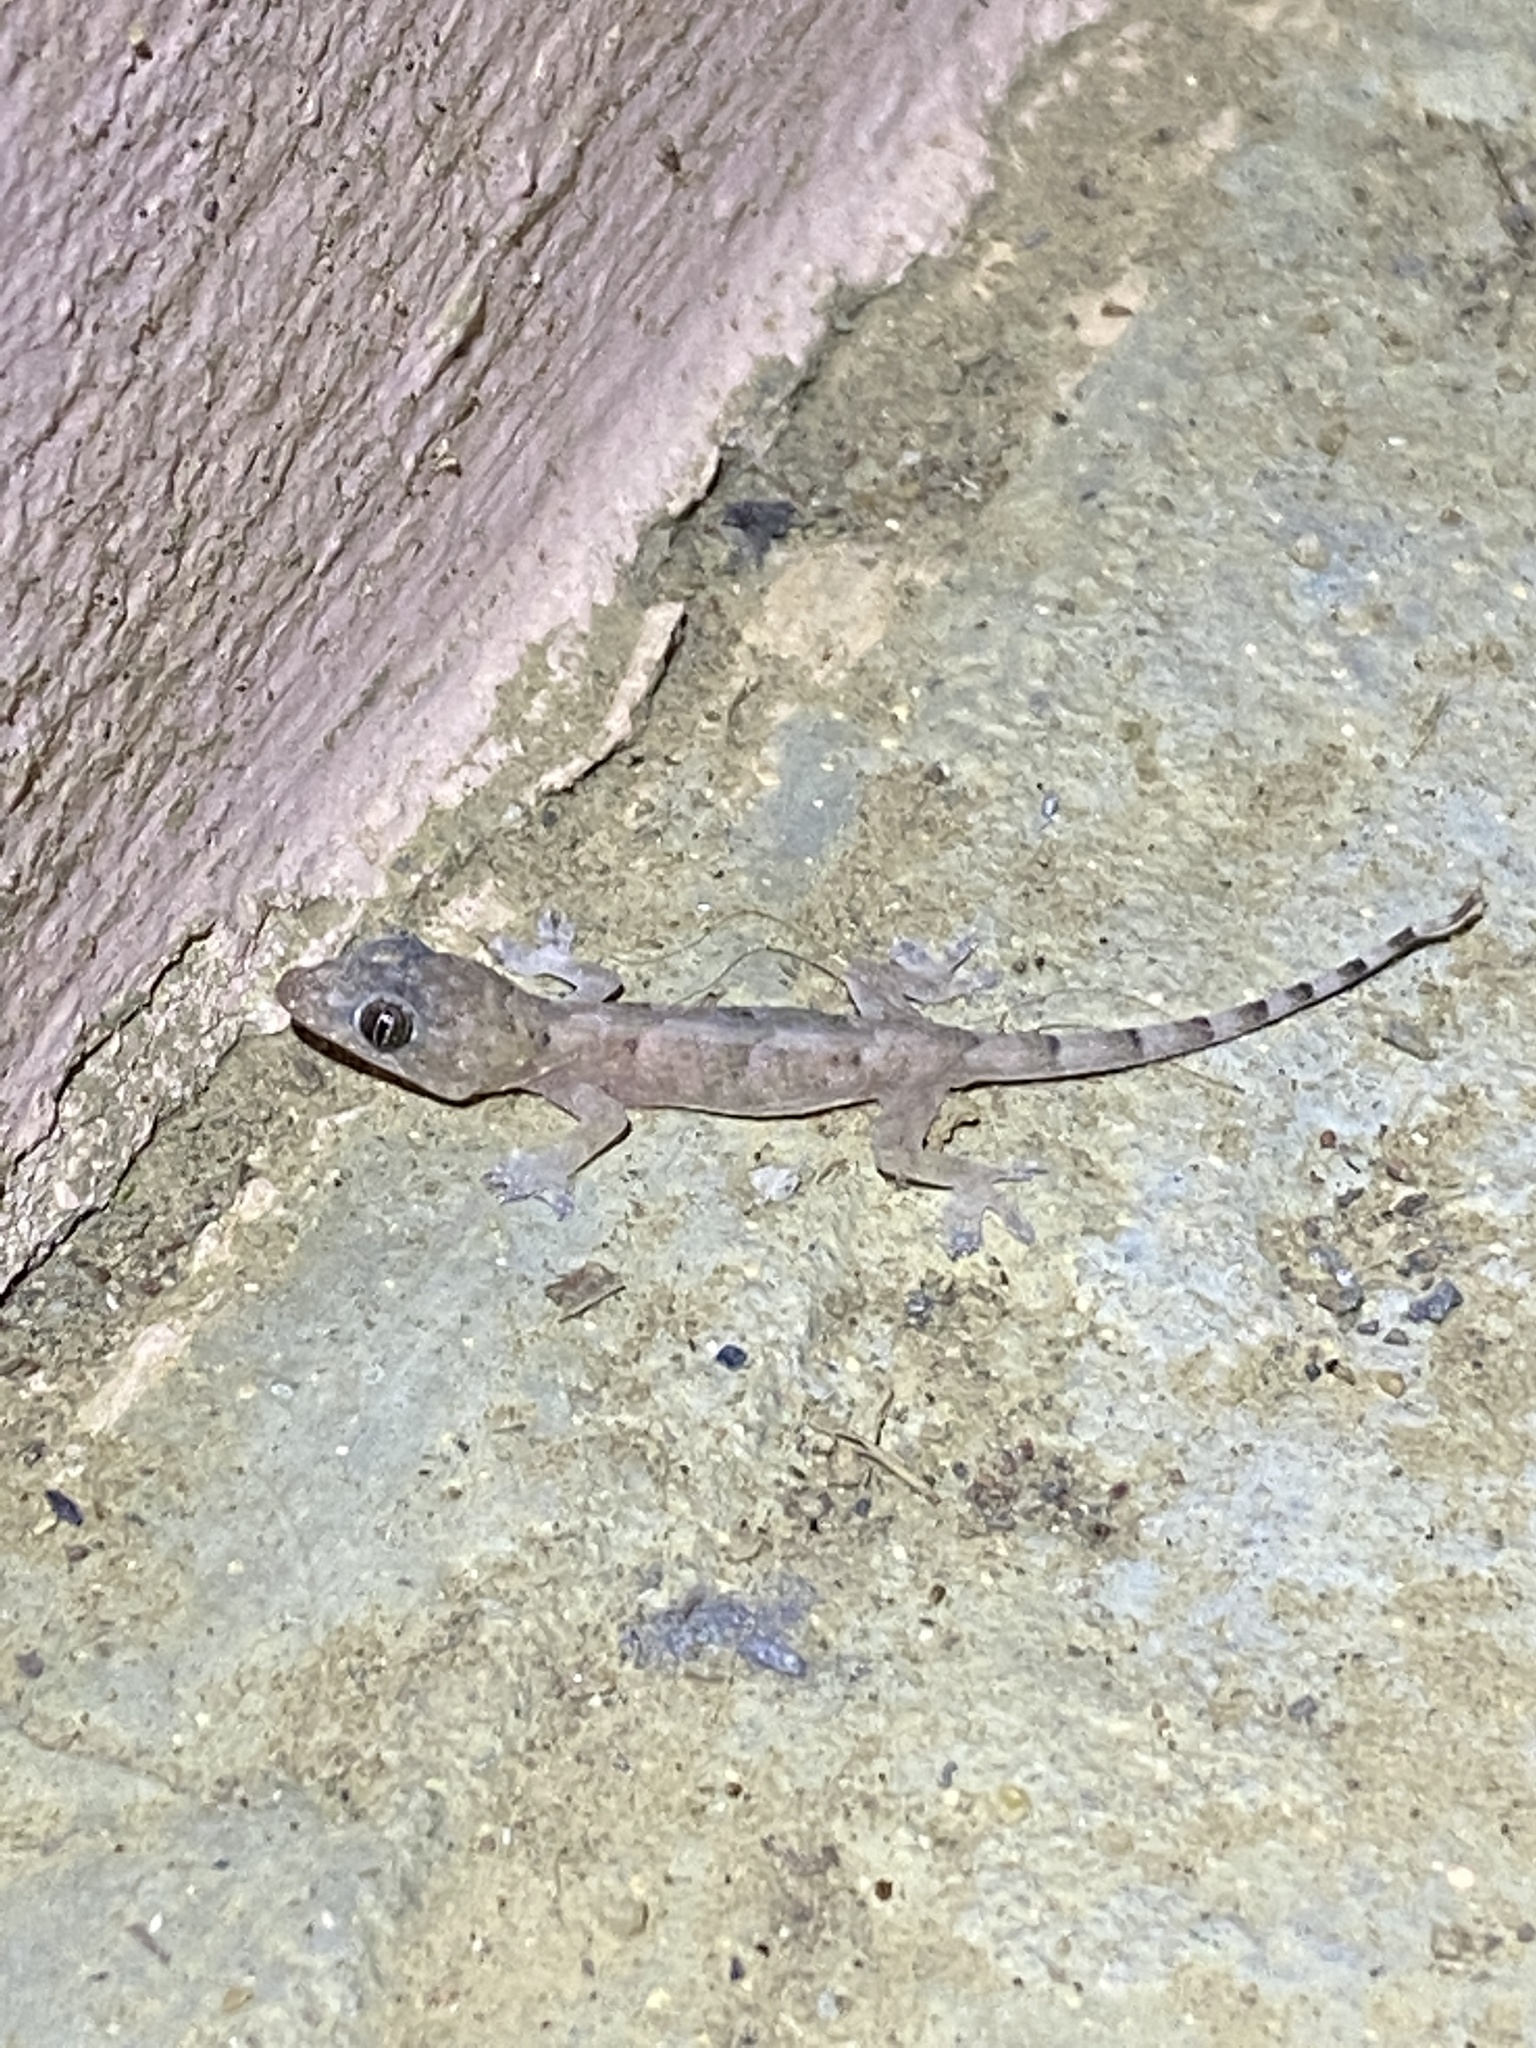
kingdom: Animalia
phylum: Chordata
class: Squamata
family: Gekkonidae
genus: Hemidactylus
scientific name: Hemidactylus mabouia
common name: House gecko
